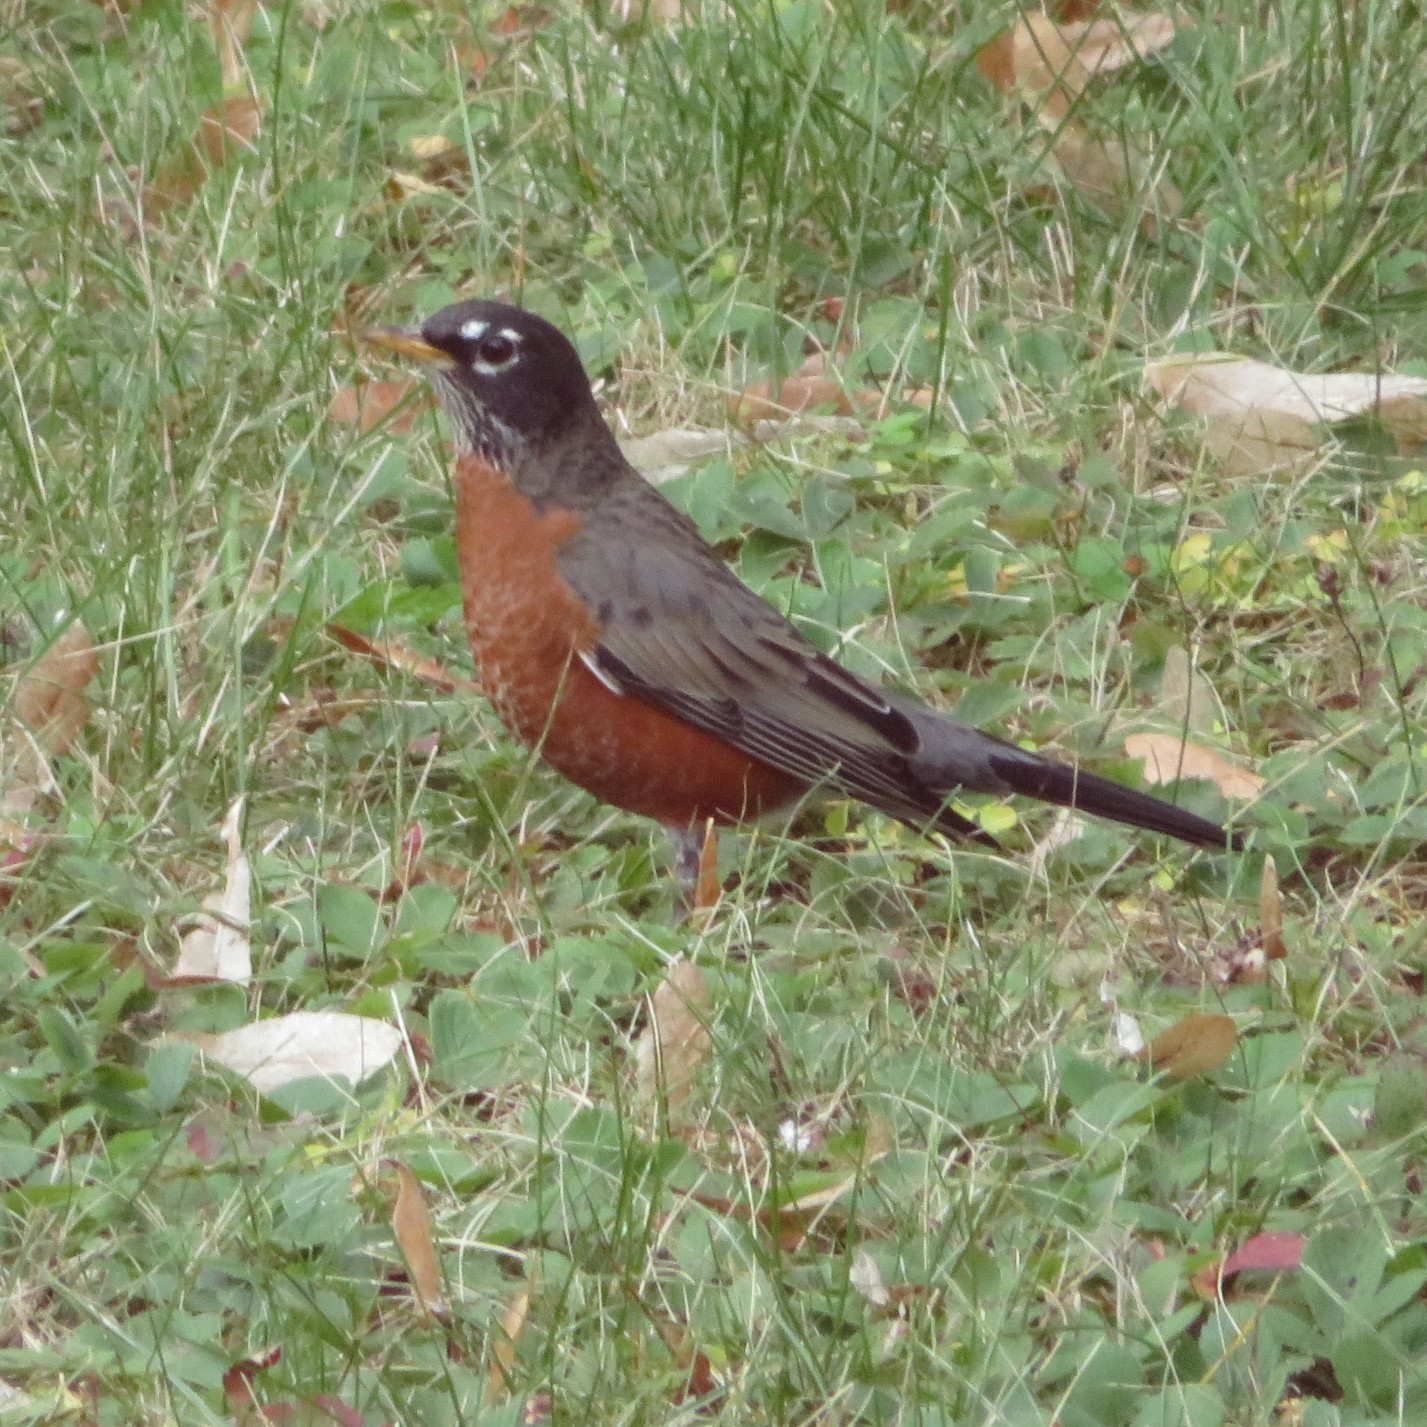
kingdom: Animalia
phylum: Chordata
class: Aves
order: Passeriformes
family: Turdidae
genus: Turdus
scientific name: Turdus migratorius
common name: American robin
